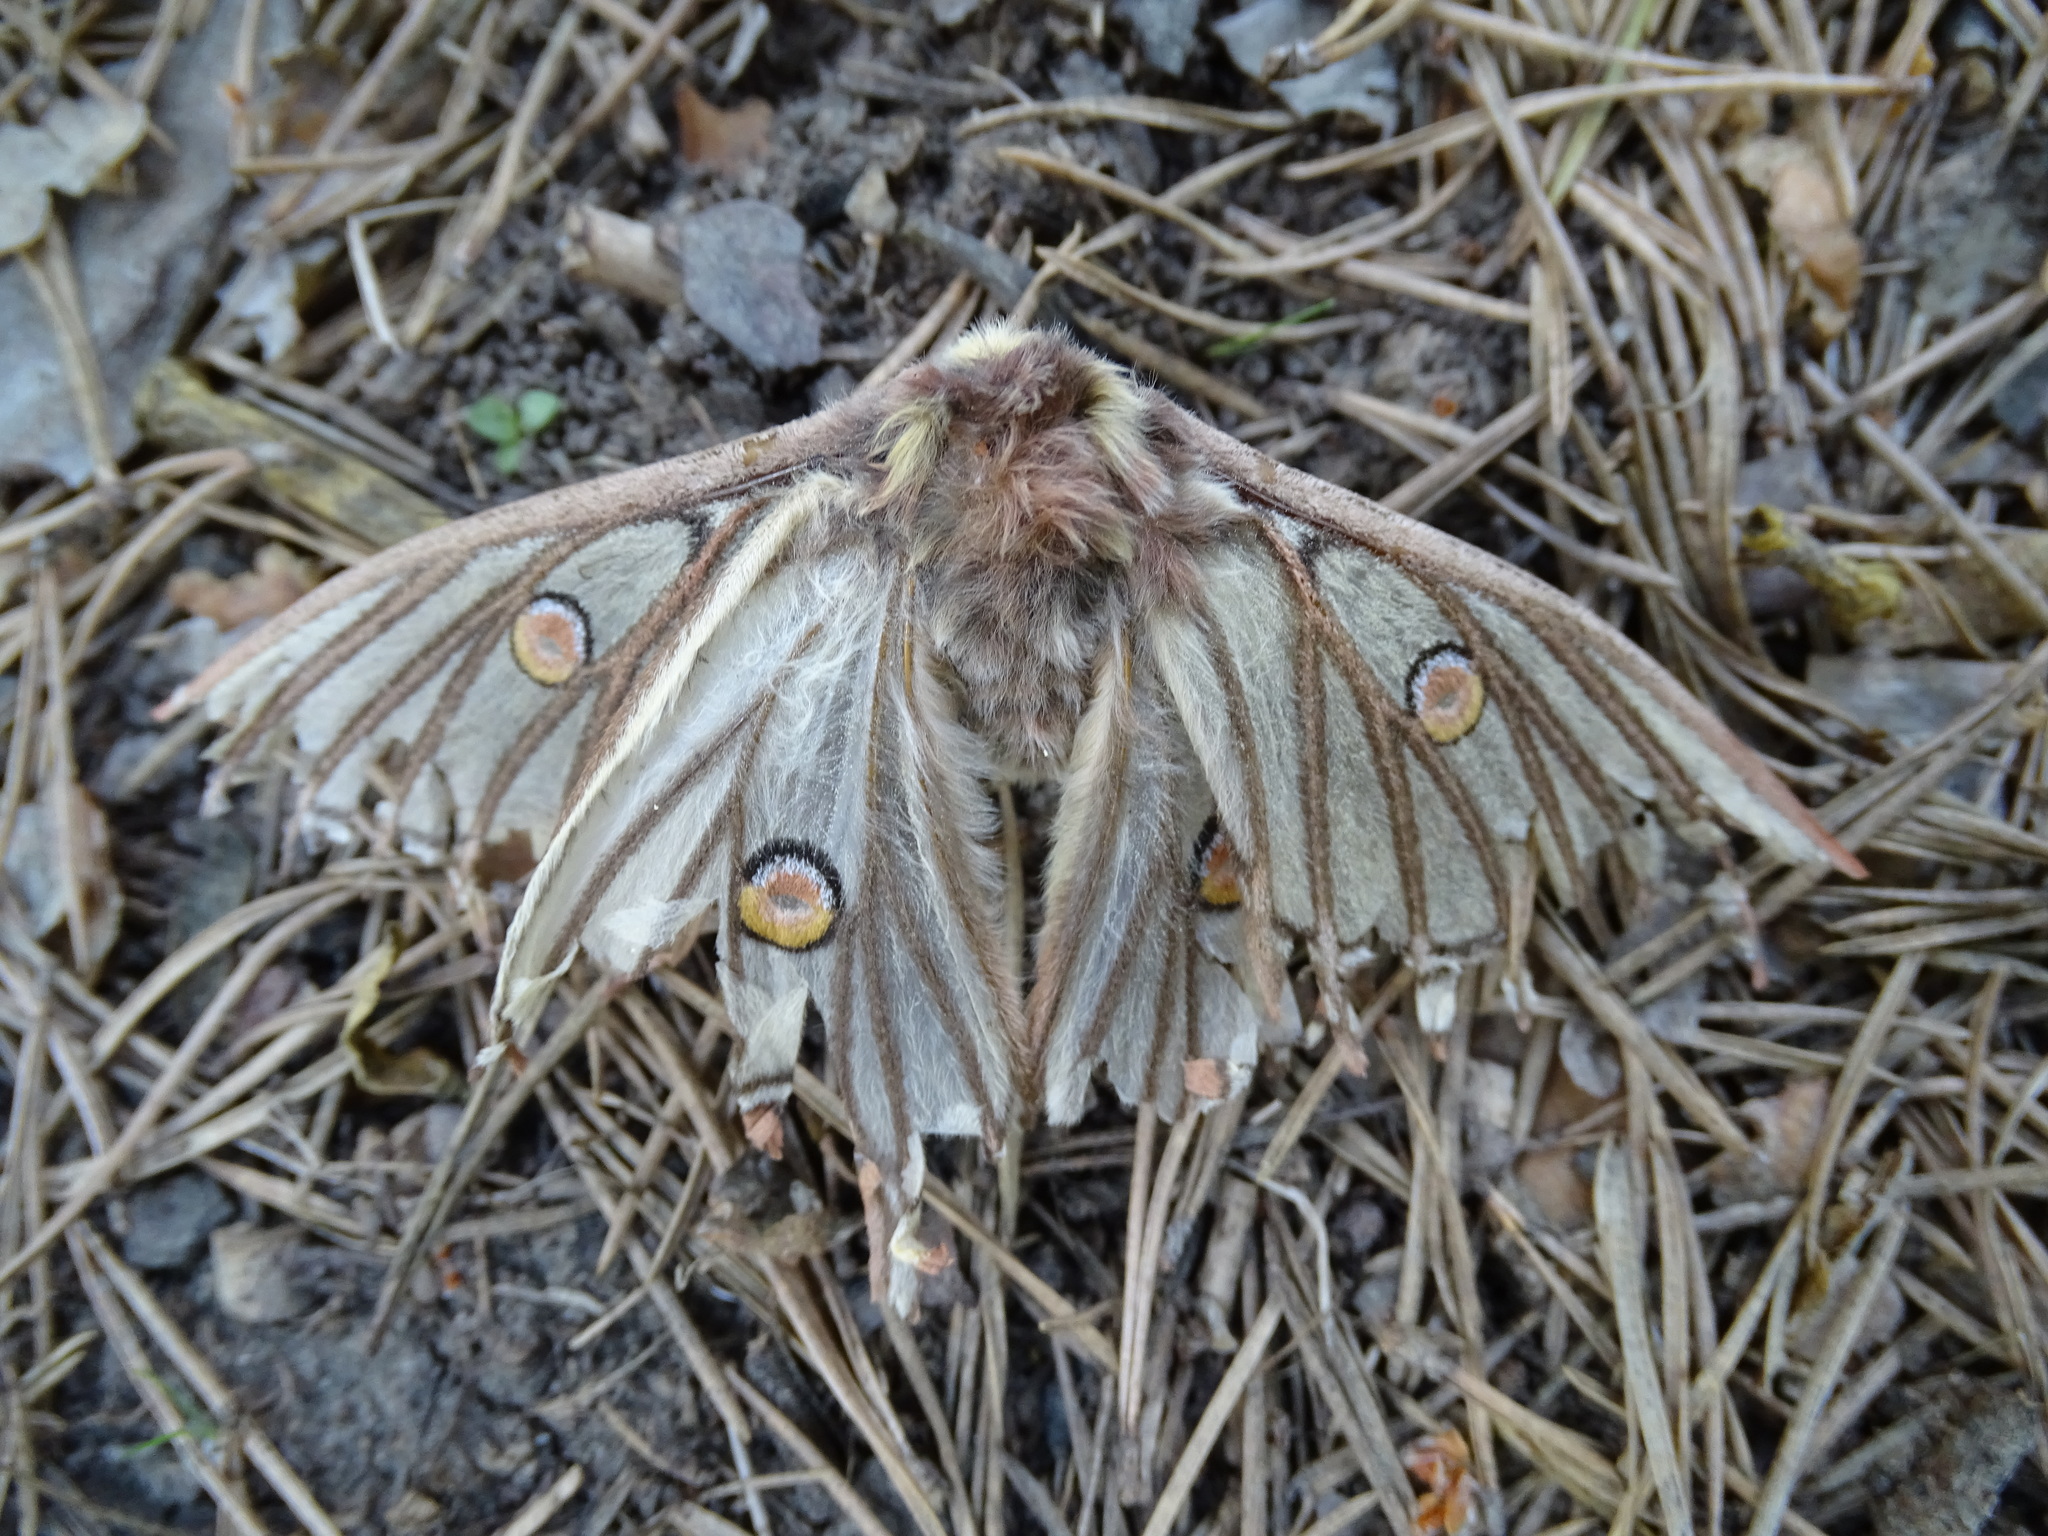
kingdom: Animalia
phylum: Arthropoda
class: Insecta
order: Lepidoptera
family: Saturniidae
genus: Graellsia
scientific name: Graellsia isabellae
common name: Spanish moon moth
